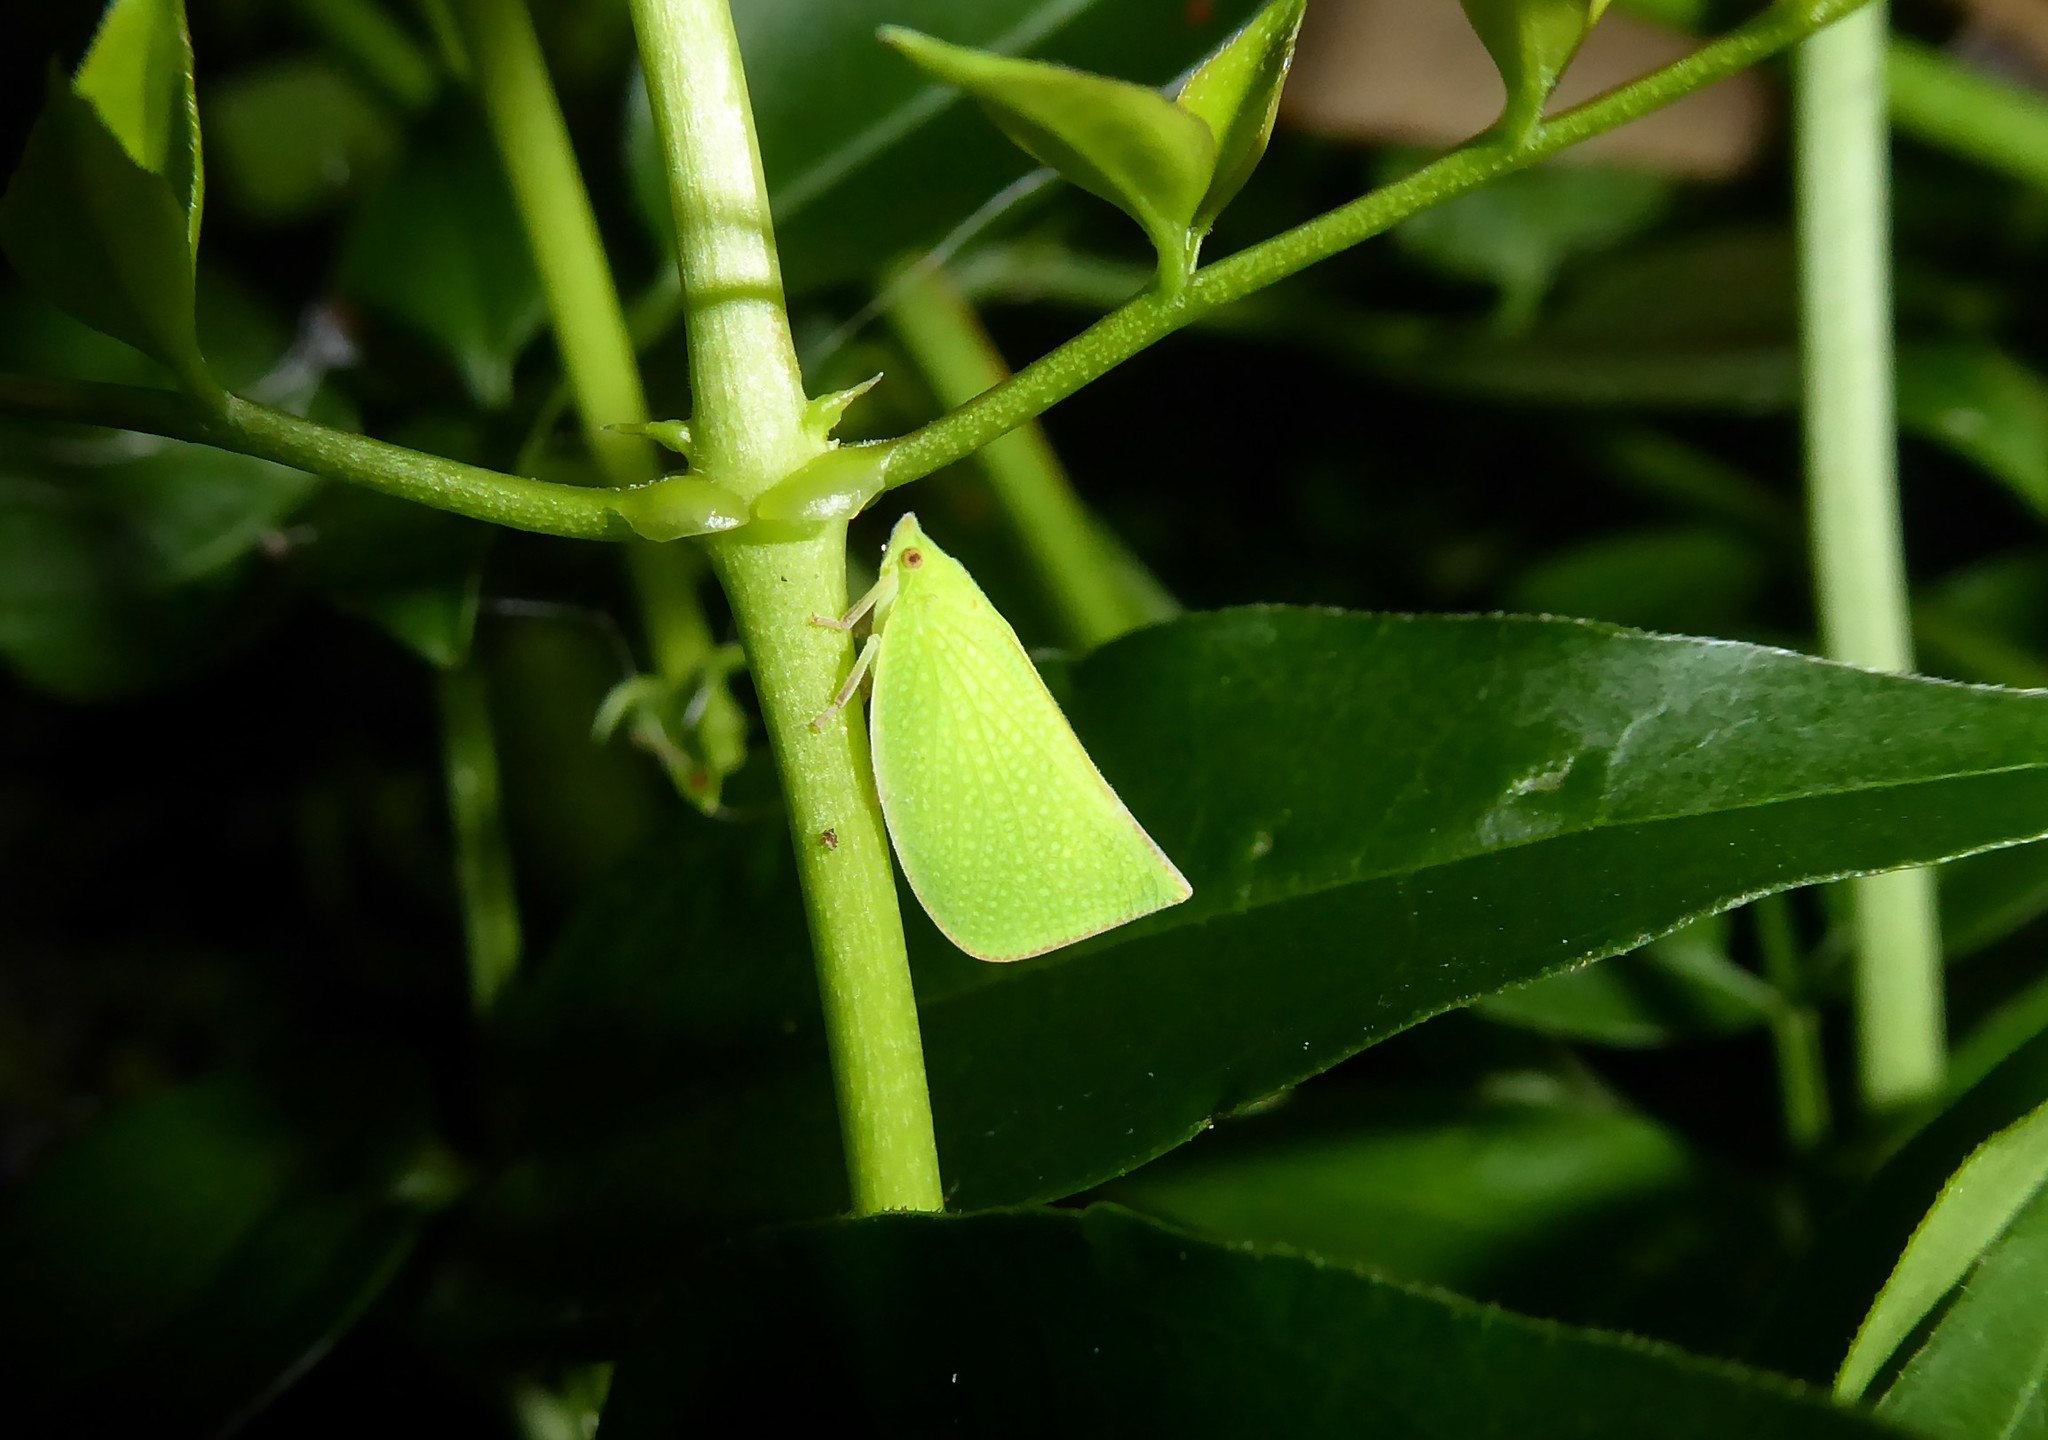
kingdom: Animalia
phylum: Arthropoda
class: Insecta
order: Hemiptera
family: Flatidae
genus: Siphanta
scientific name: Siphanta acuta
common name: Torpedo bug
